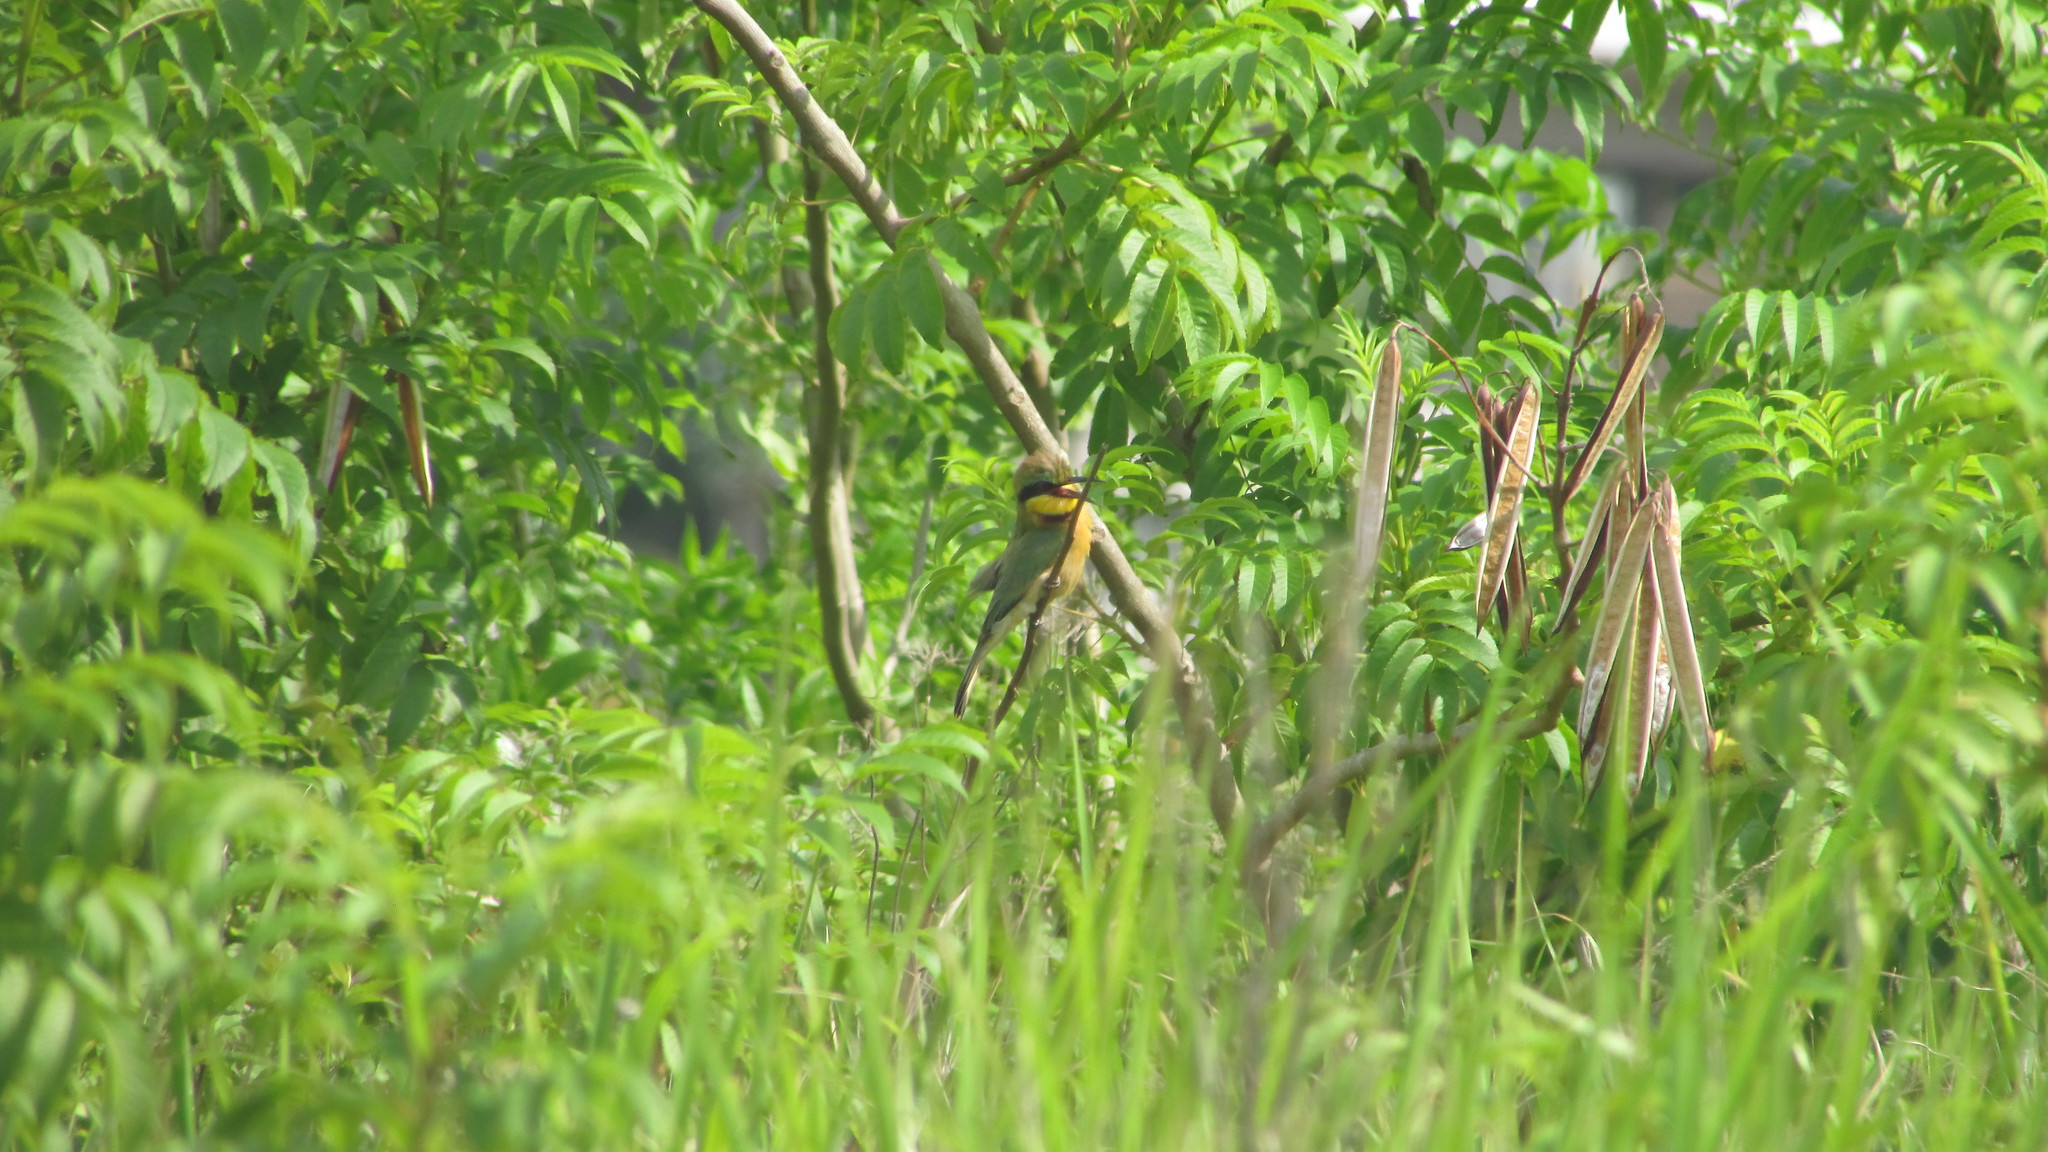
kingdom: Animalia
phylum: Chordata
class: Aves
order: Coraciiformes
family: Meropidae
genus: Merops
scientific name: Merops pusillus
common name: Little bee-eater
